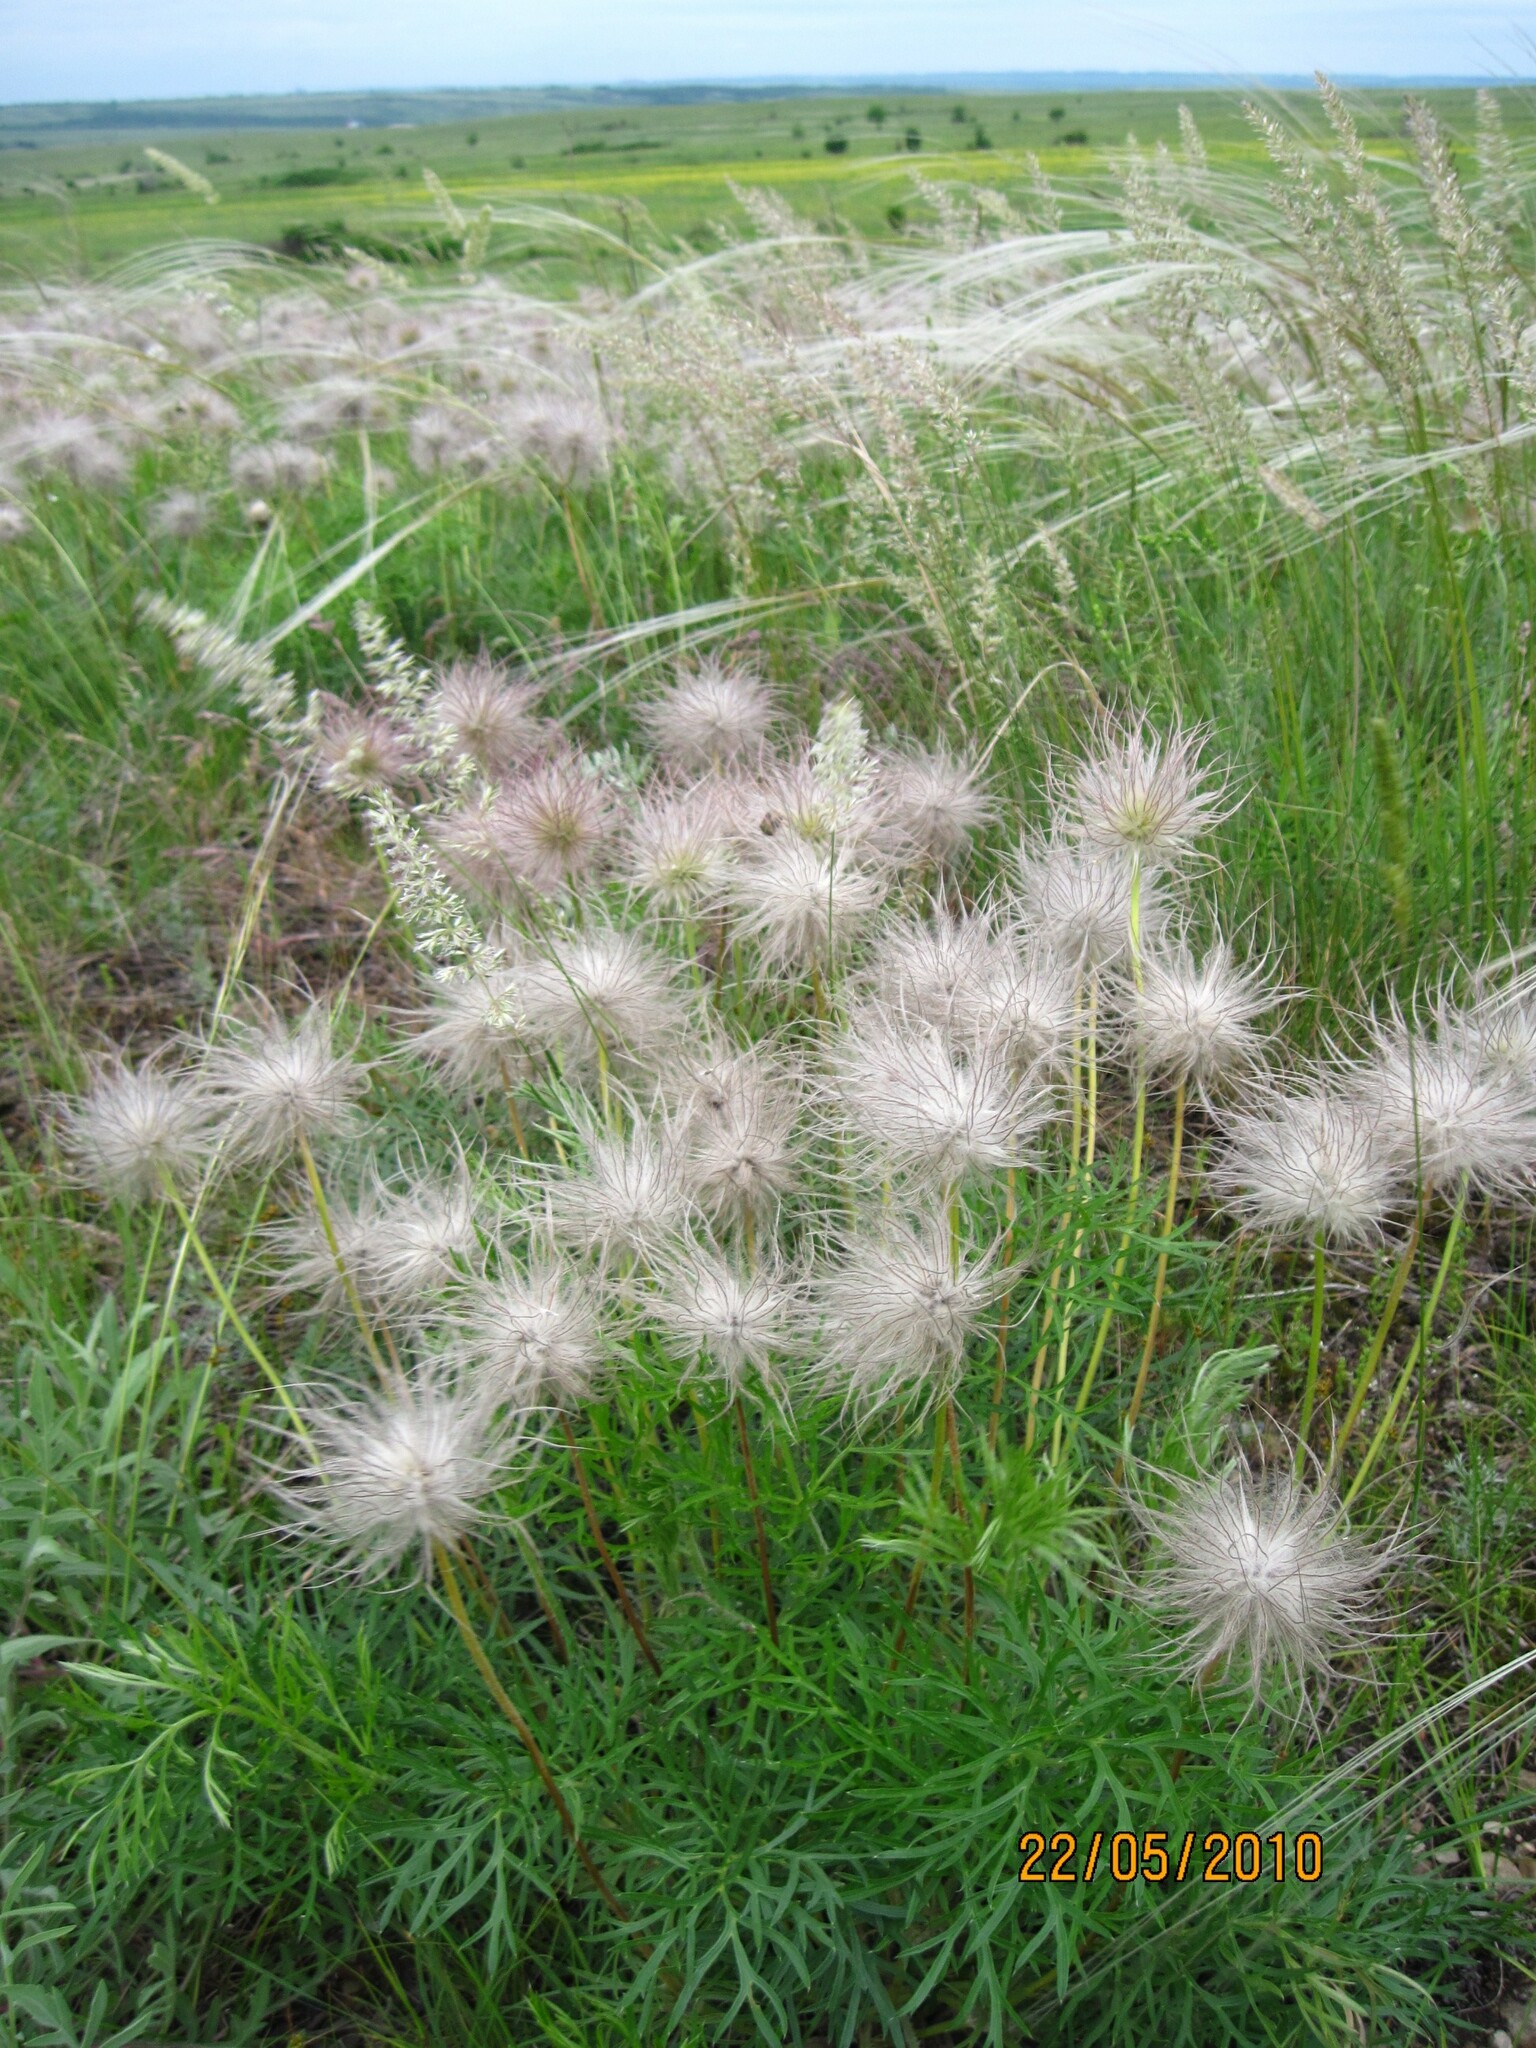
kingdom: Plantae
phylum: Tracheophyta
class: Magnoliopsida
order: Ranunculales
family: Ranunculaceae
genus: Pulsatilla
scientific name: Pulsatilla pratensis
